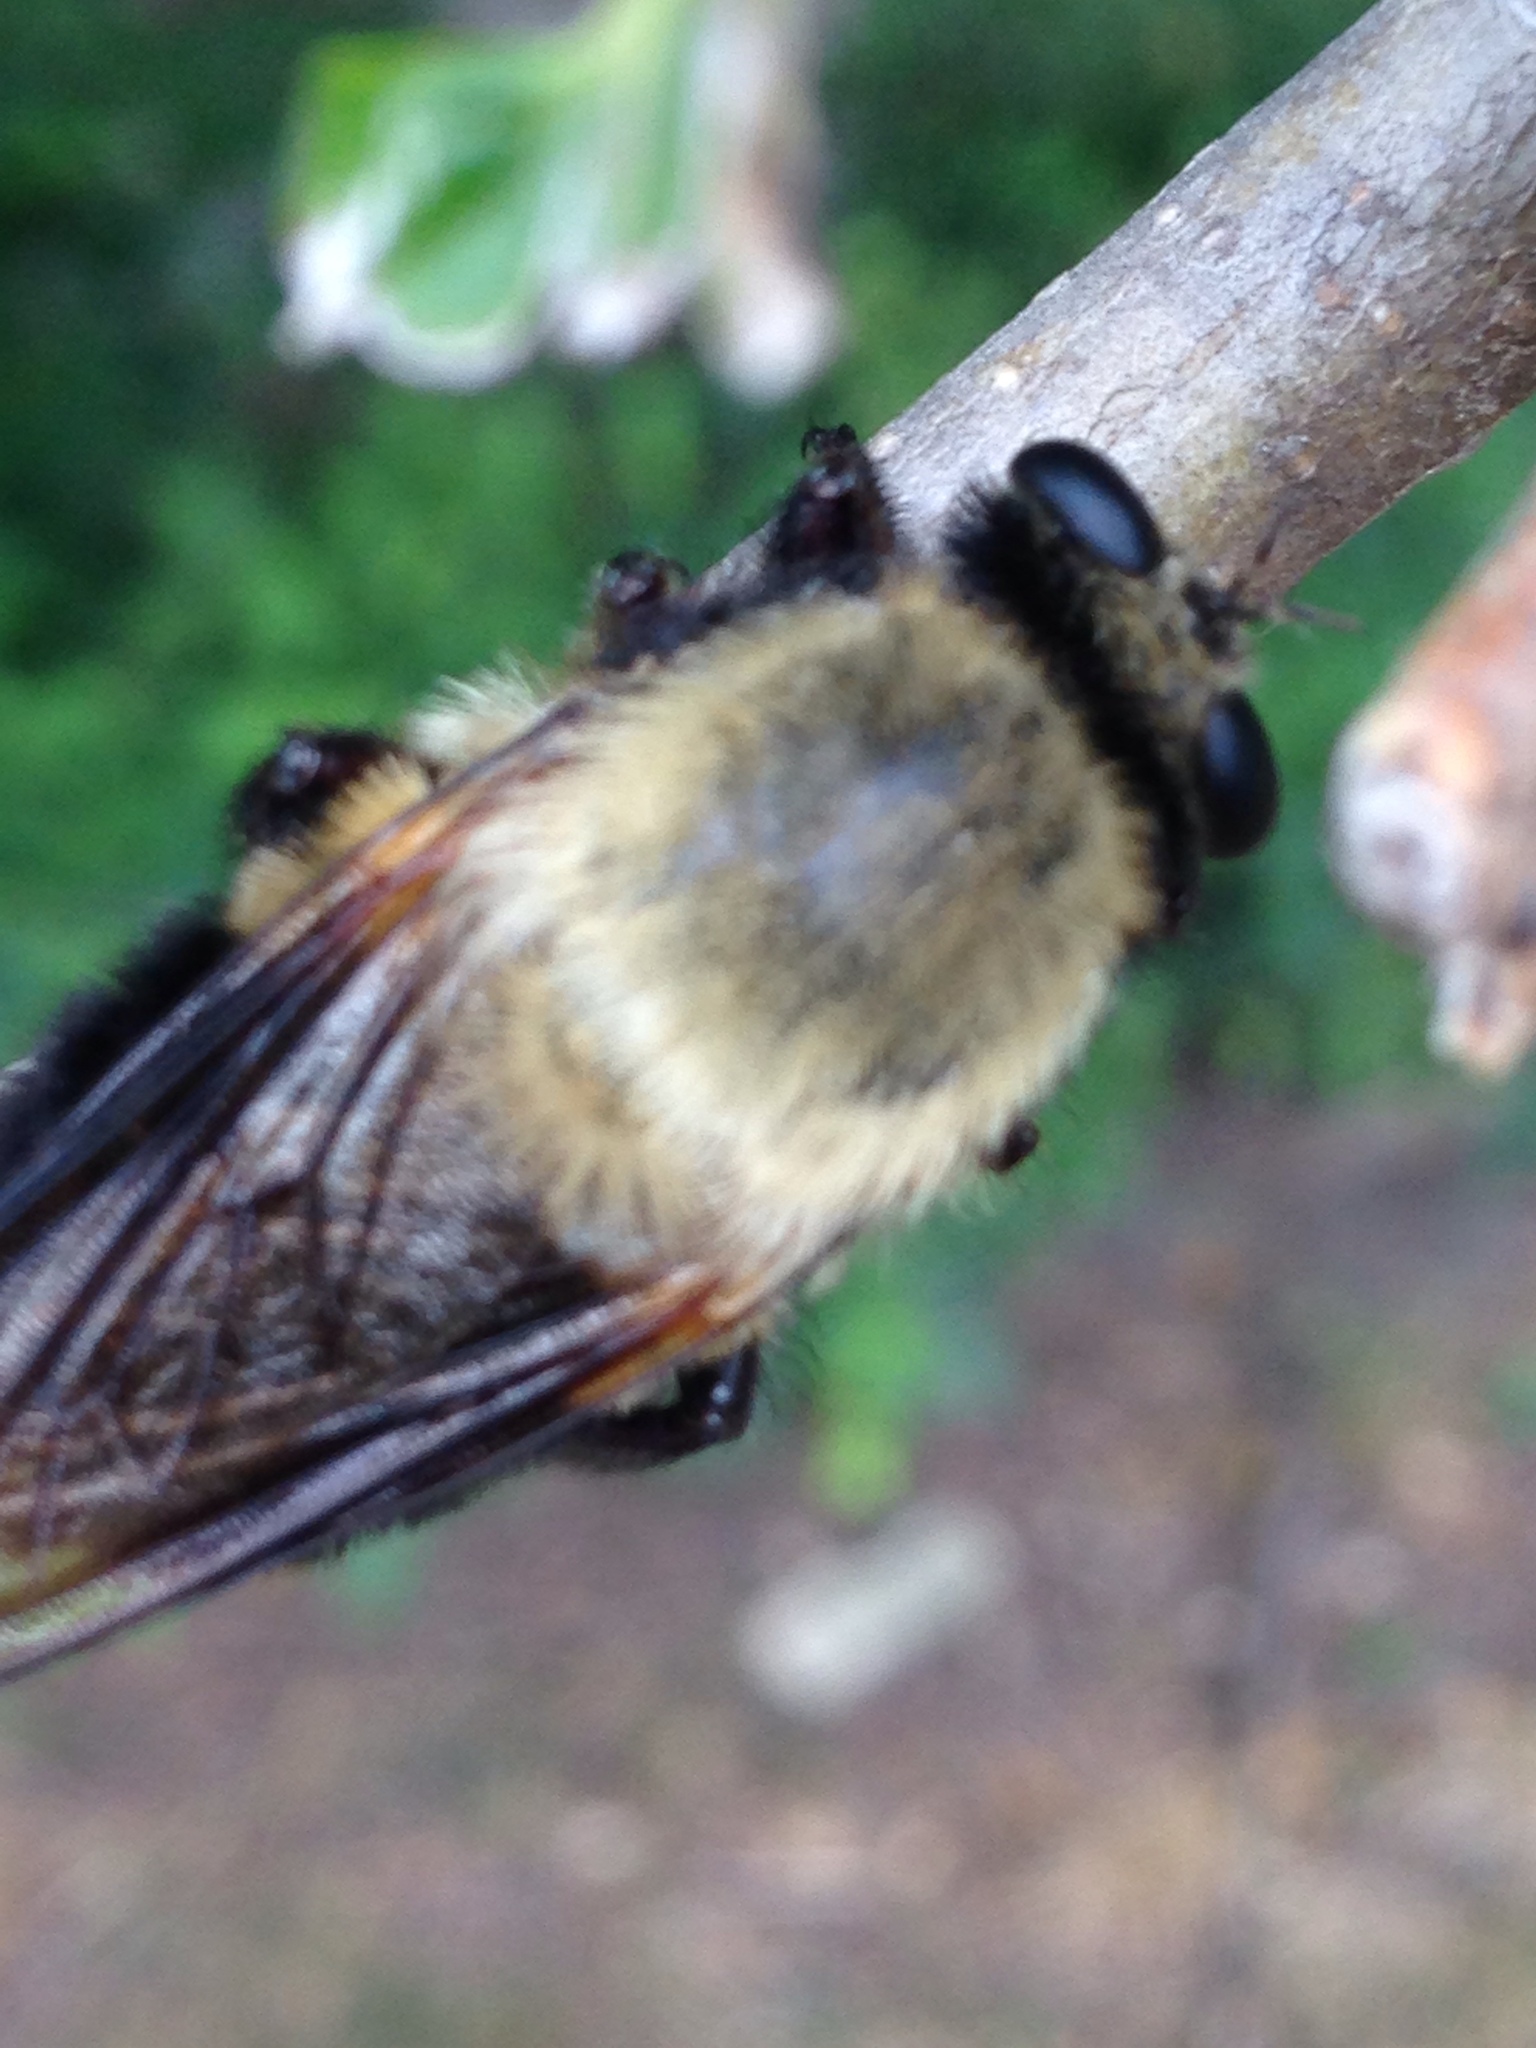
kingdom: Animalia
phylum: Arthropoda
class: Insecta
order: Diptera
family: Asilidae
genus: Dasylechia
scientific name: Dasylechia atrox
